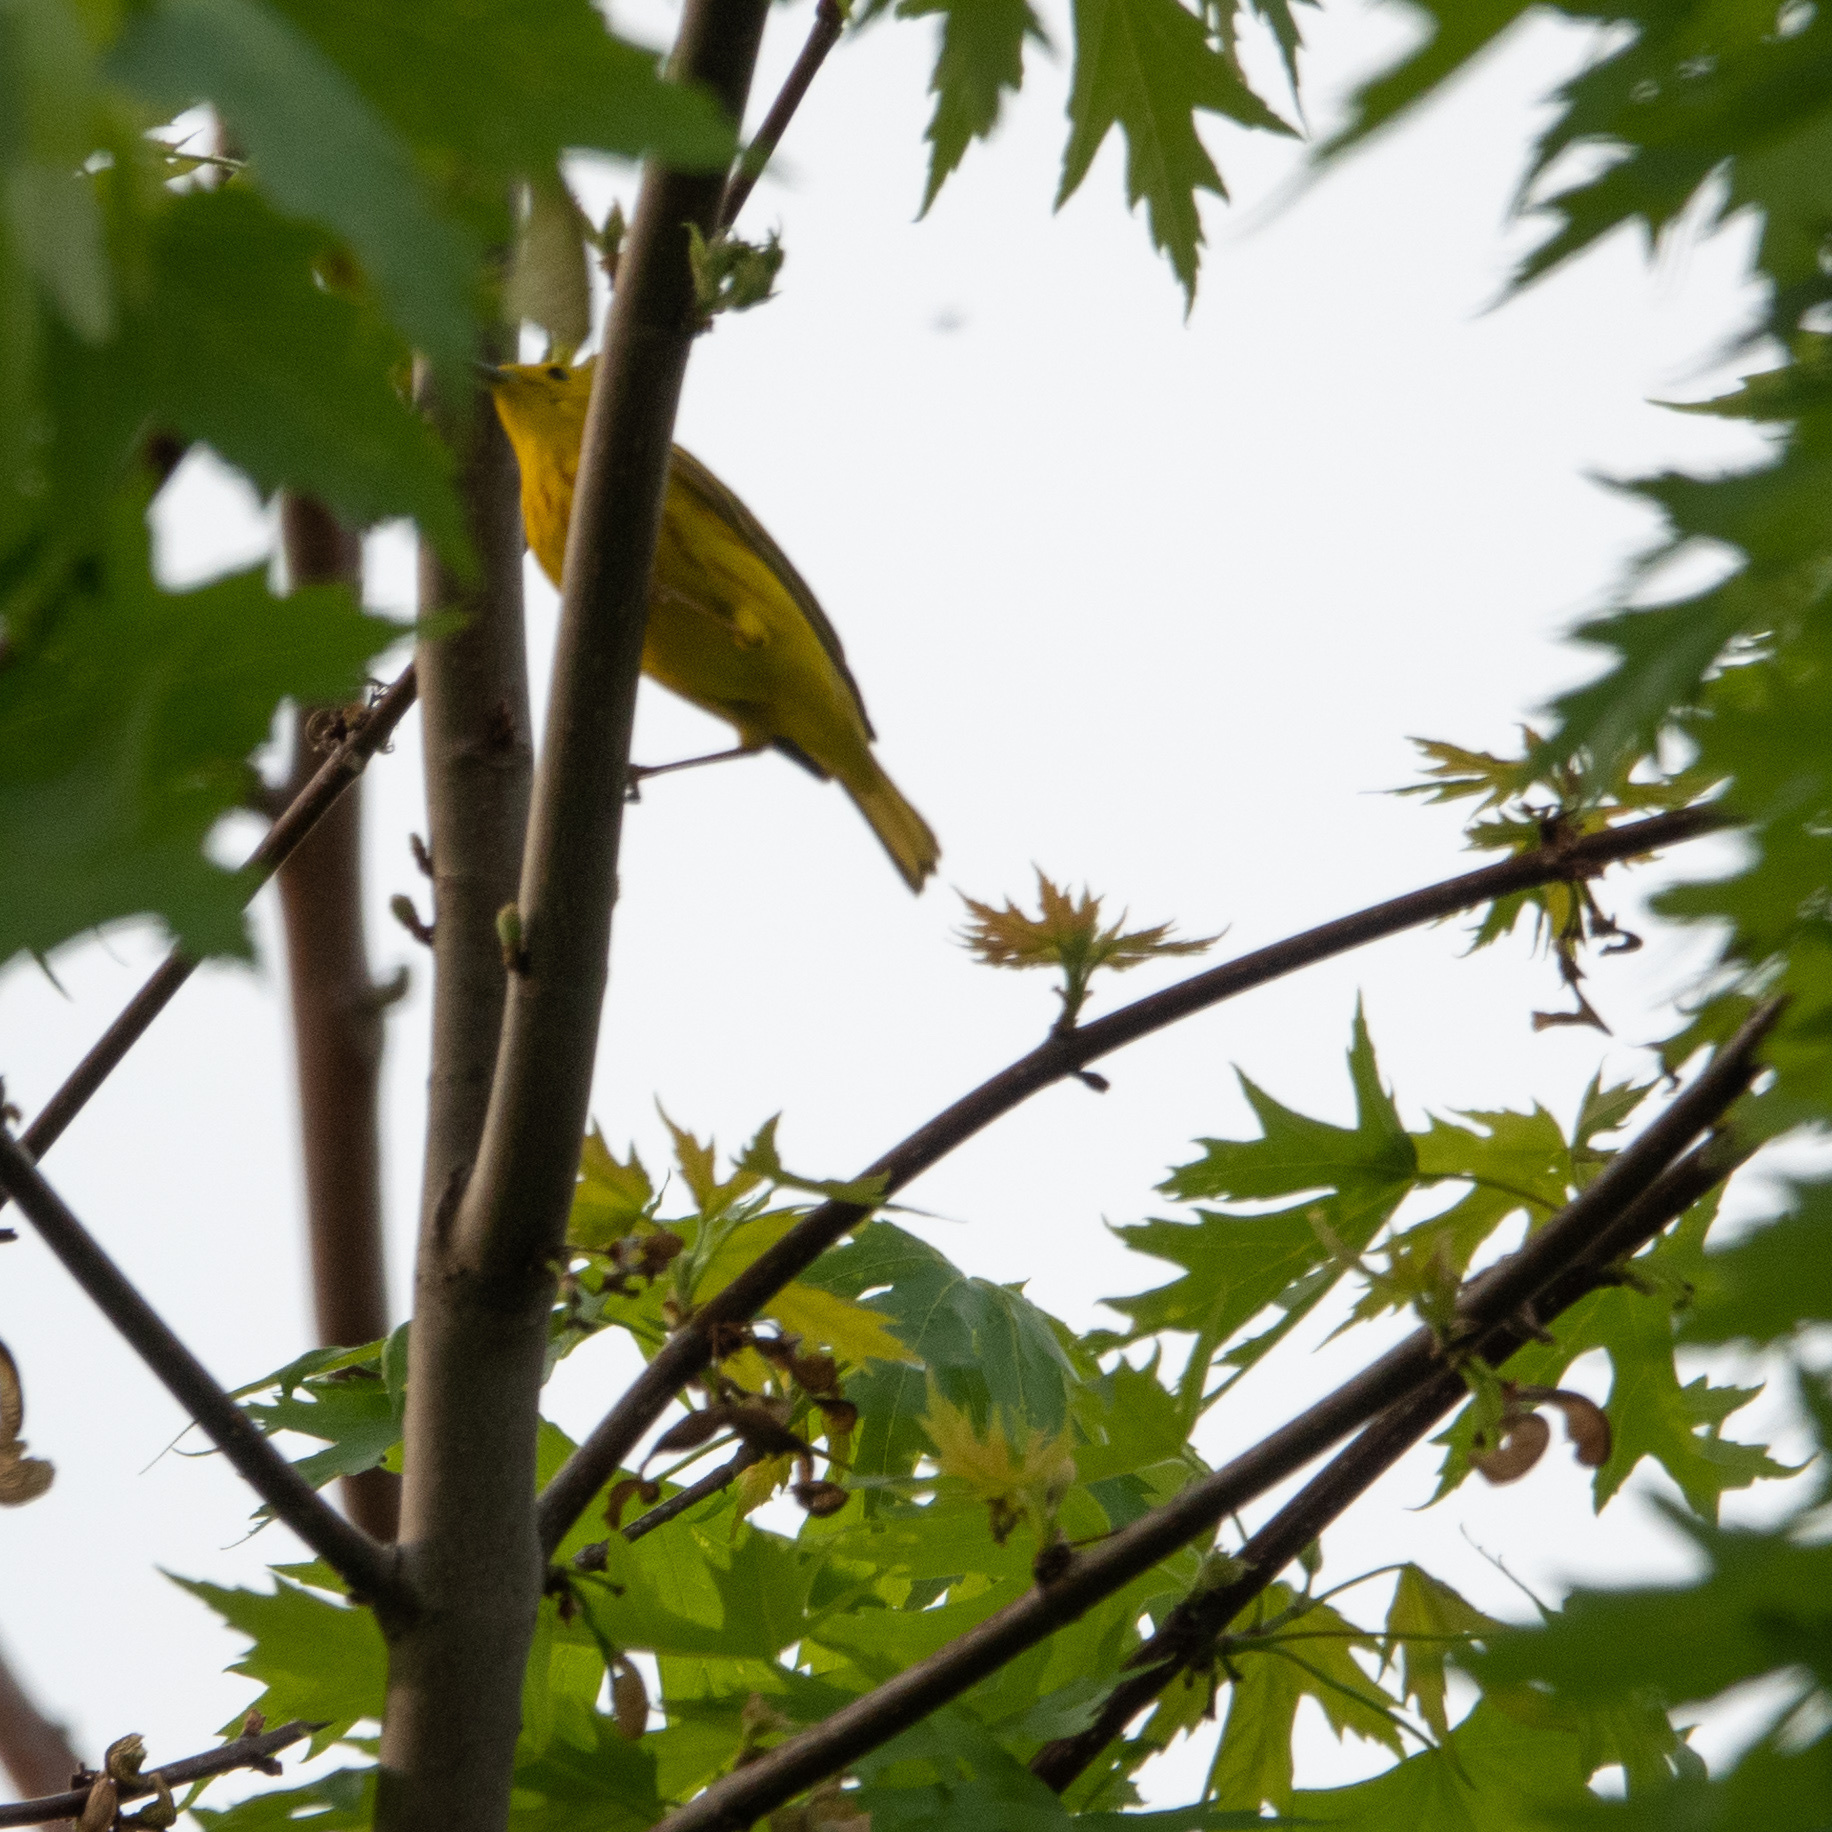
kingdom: Animalia
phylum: Chordata
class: Aves
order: Passeriformes
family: Parulidae
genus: Setophaga
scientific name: Setophaga petechia
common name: Yellow warbler
